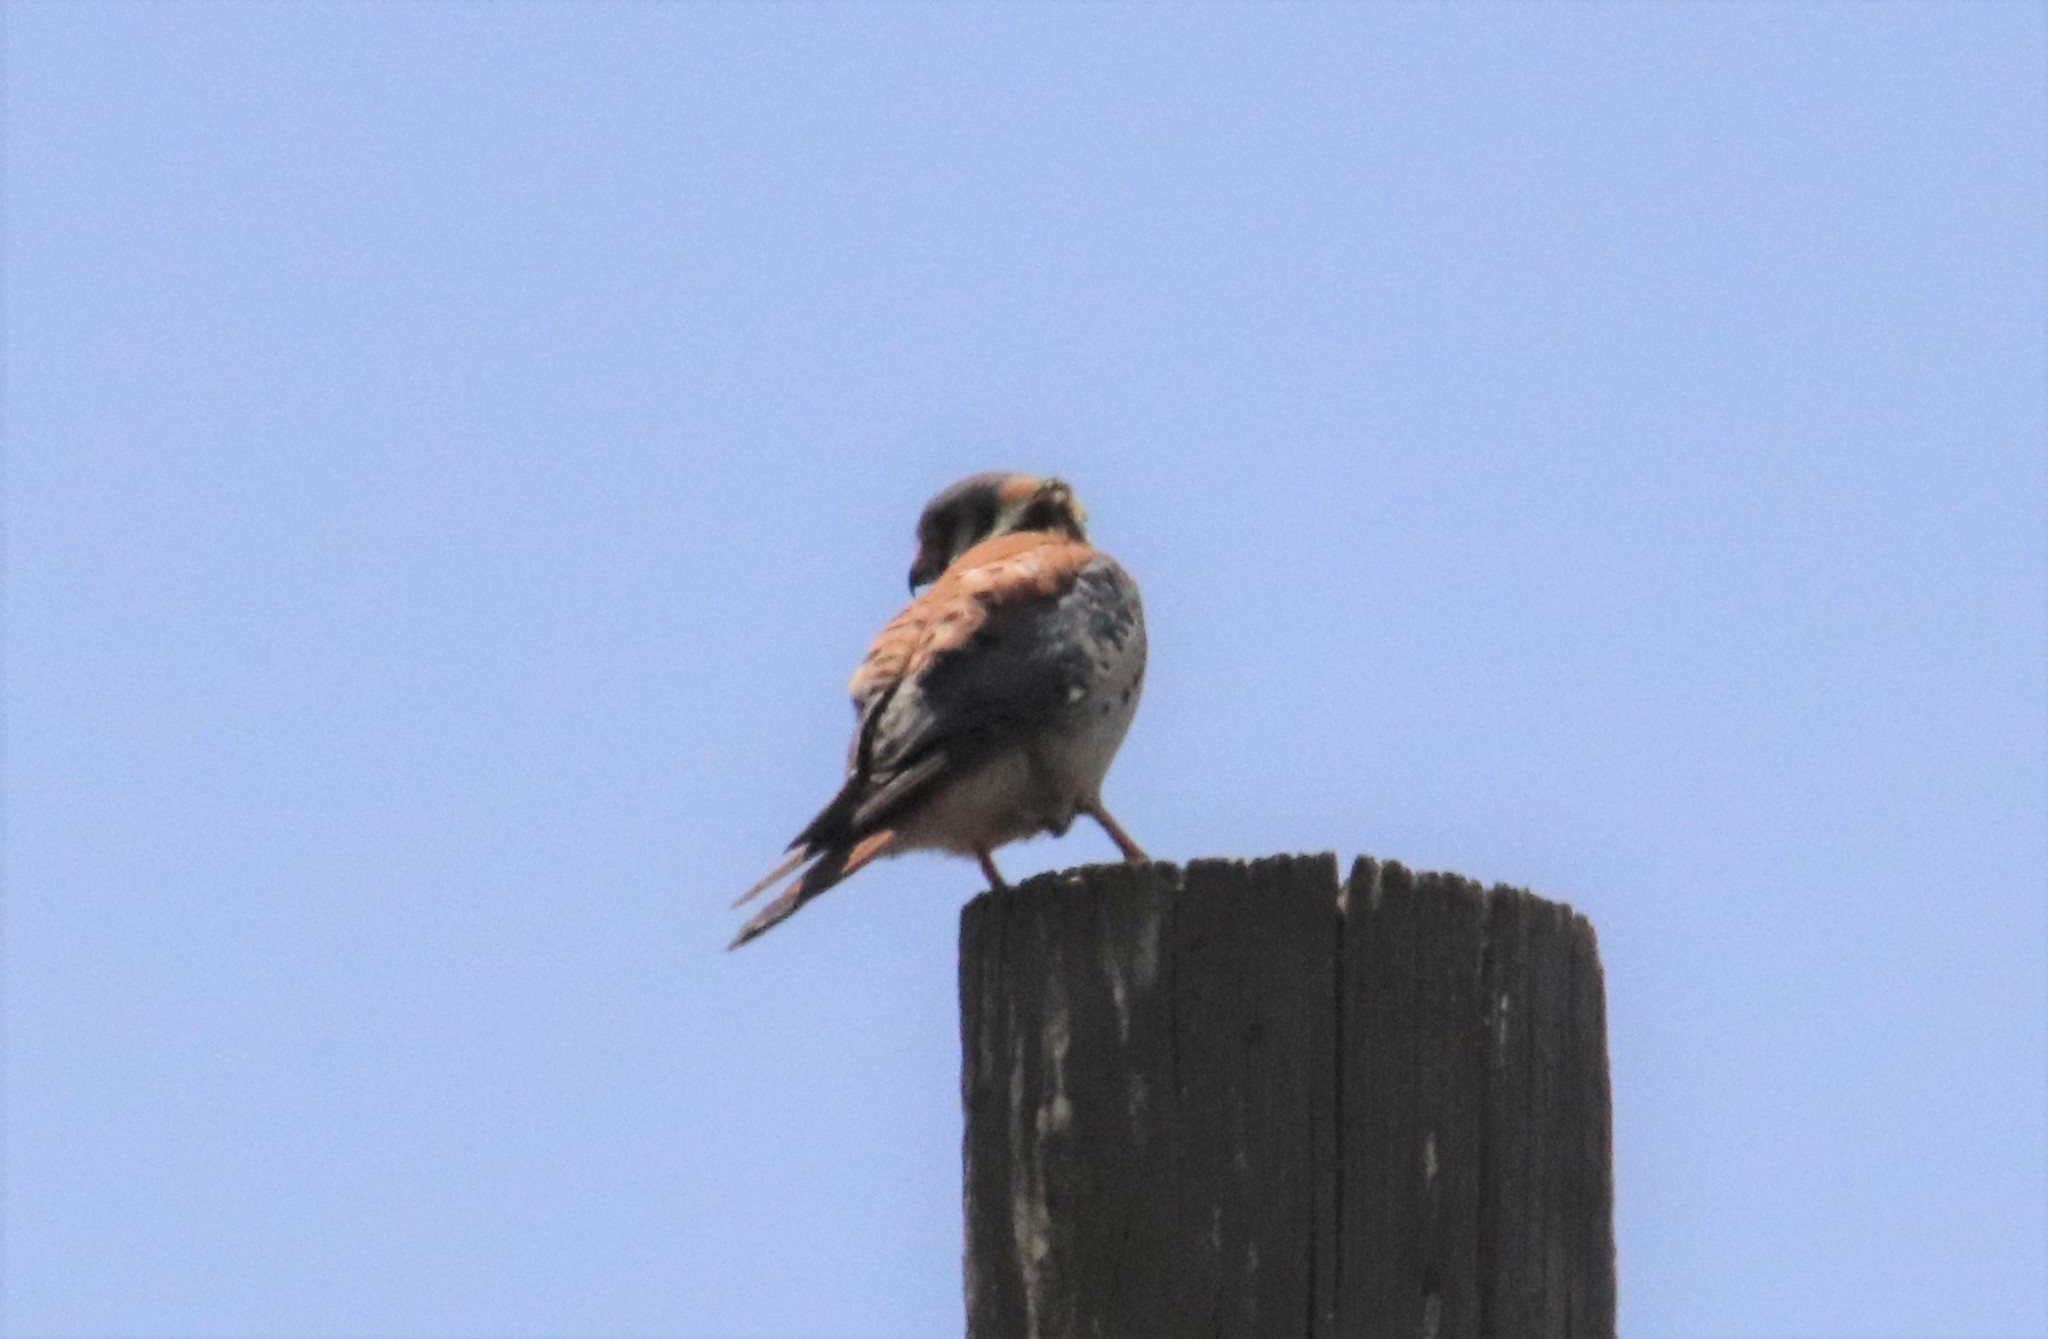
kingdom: Animalia
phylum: Chordata
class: Aves
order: Falconiformes
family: Falconidae
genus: Falco
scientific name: Falco sparverius
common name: American kestrel
